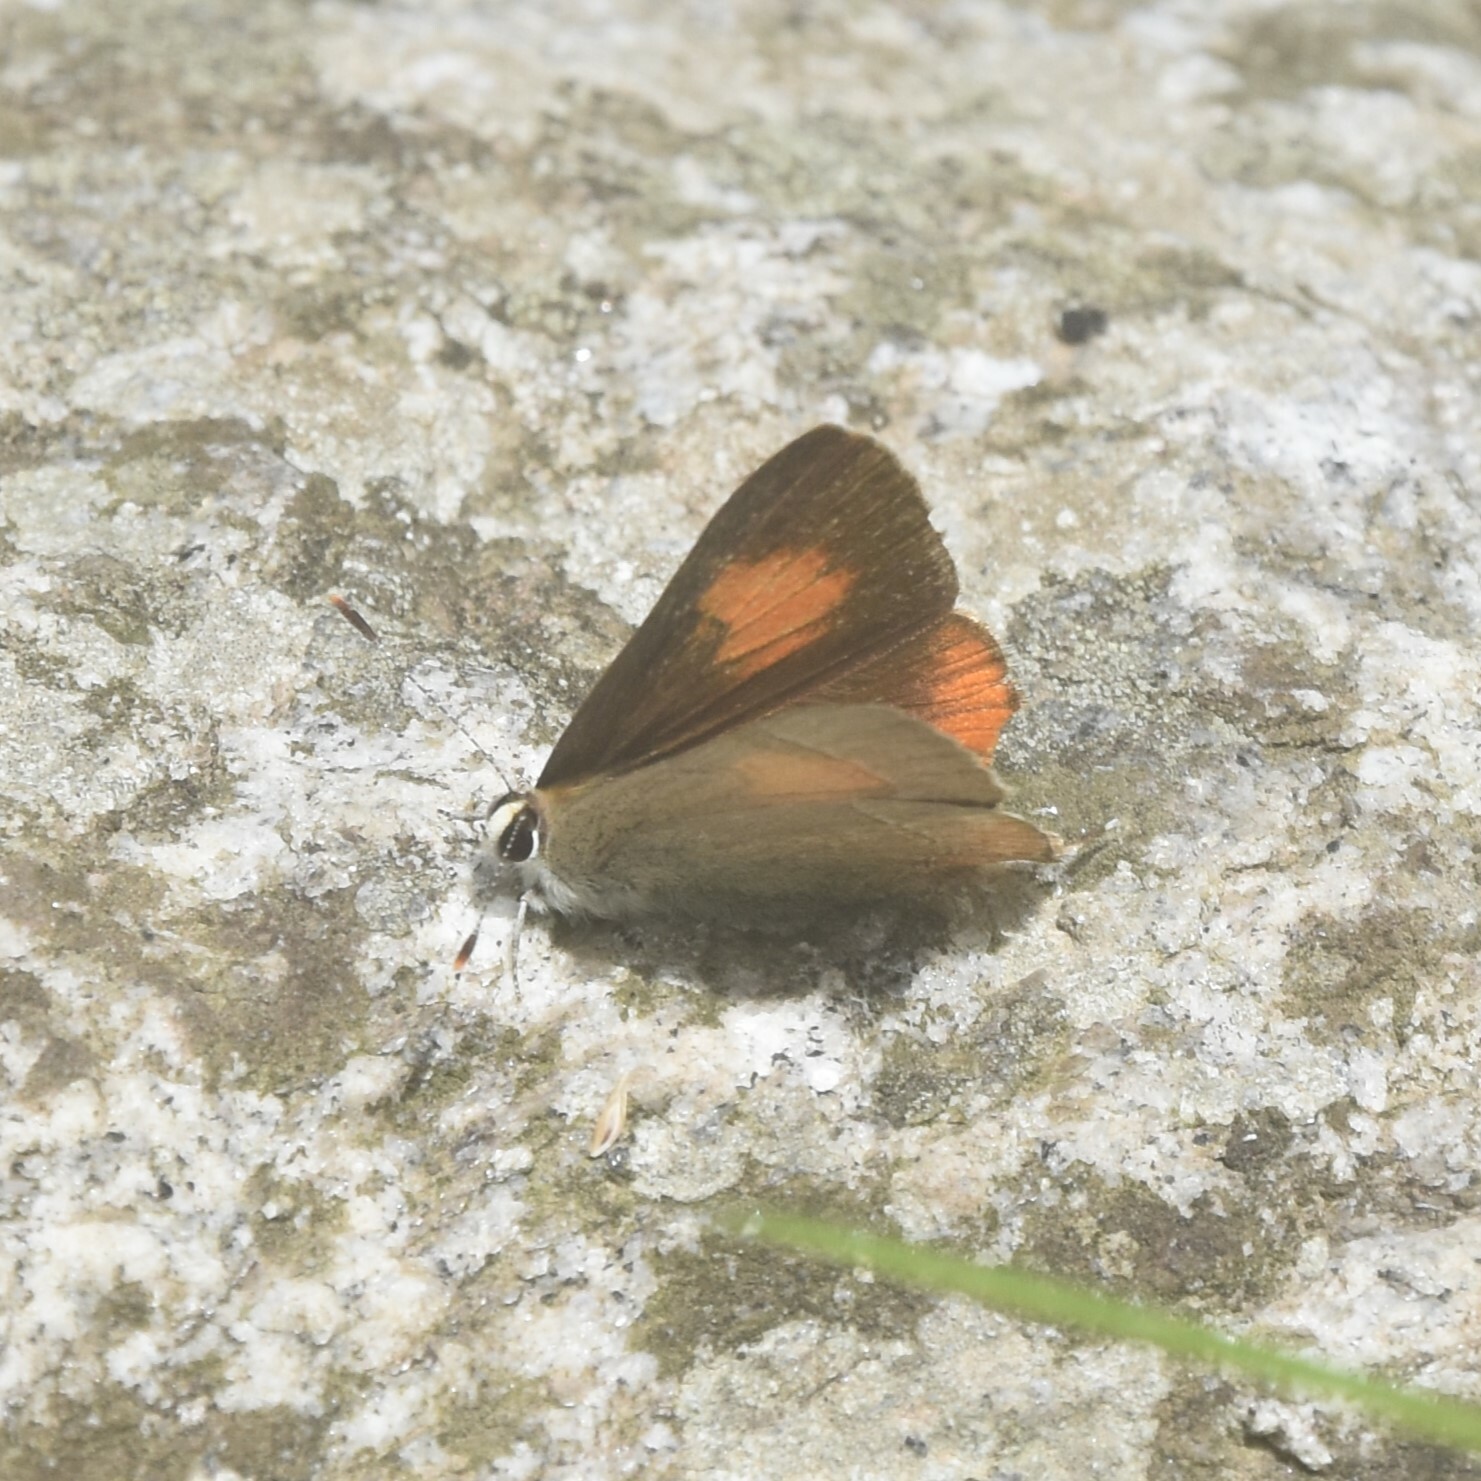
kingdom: Animalia
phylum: Arthropoda
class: Insecta
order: Lepidoptera
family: Lycaenidae
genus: Rapala
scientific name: Rapala selira
